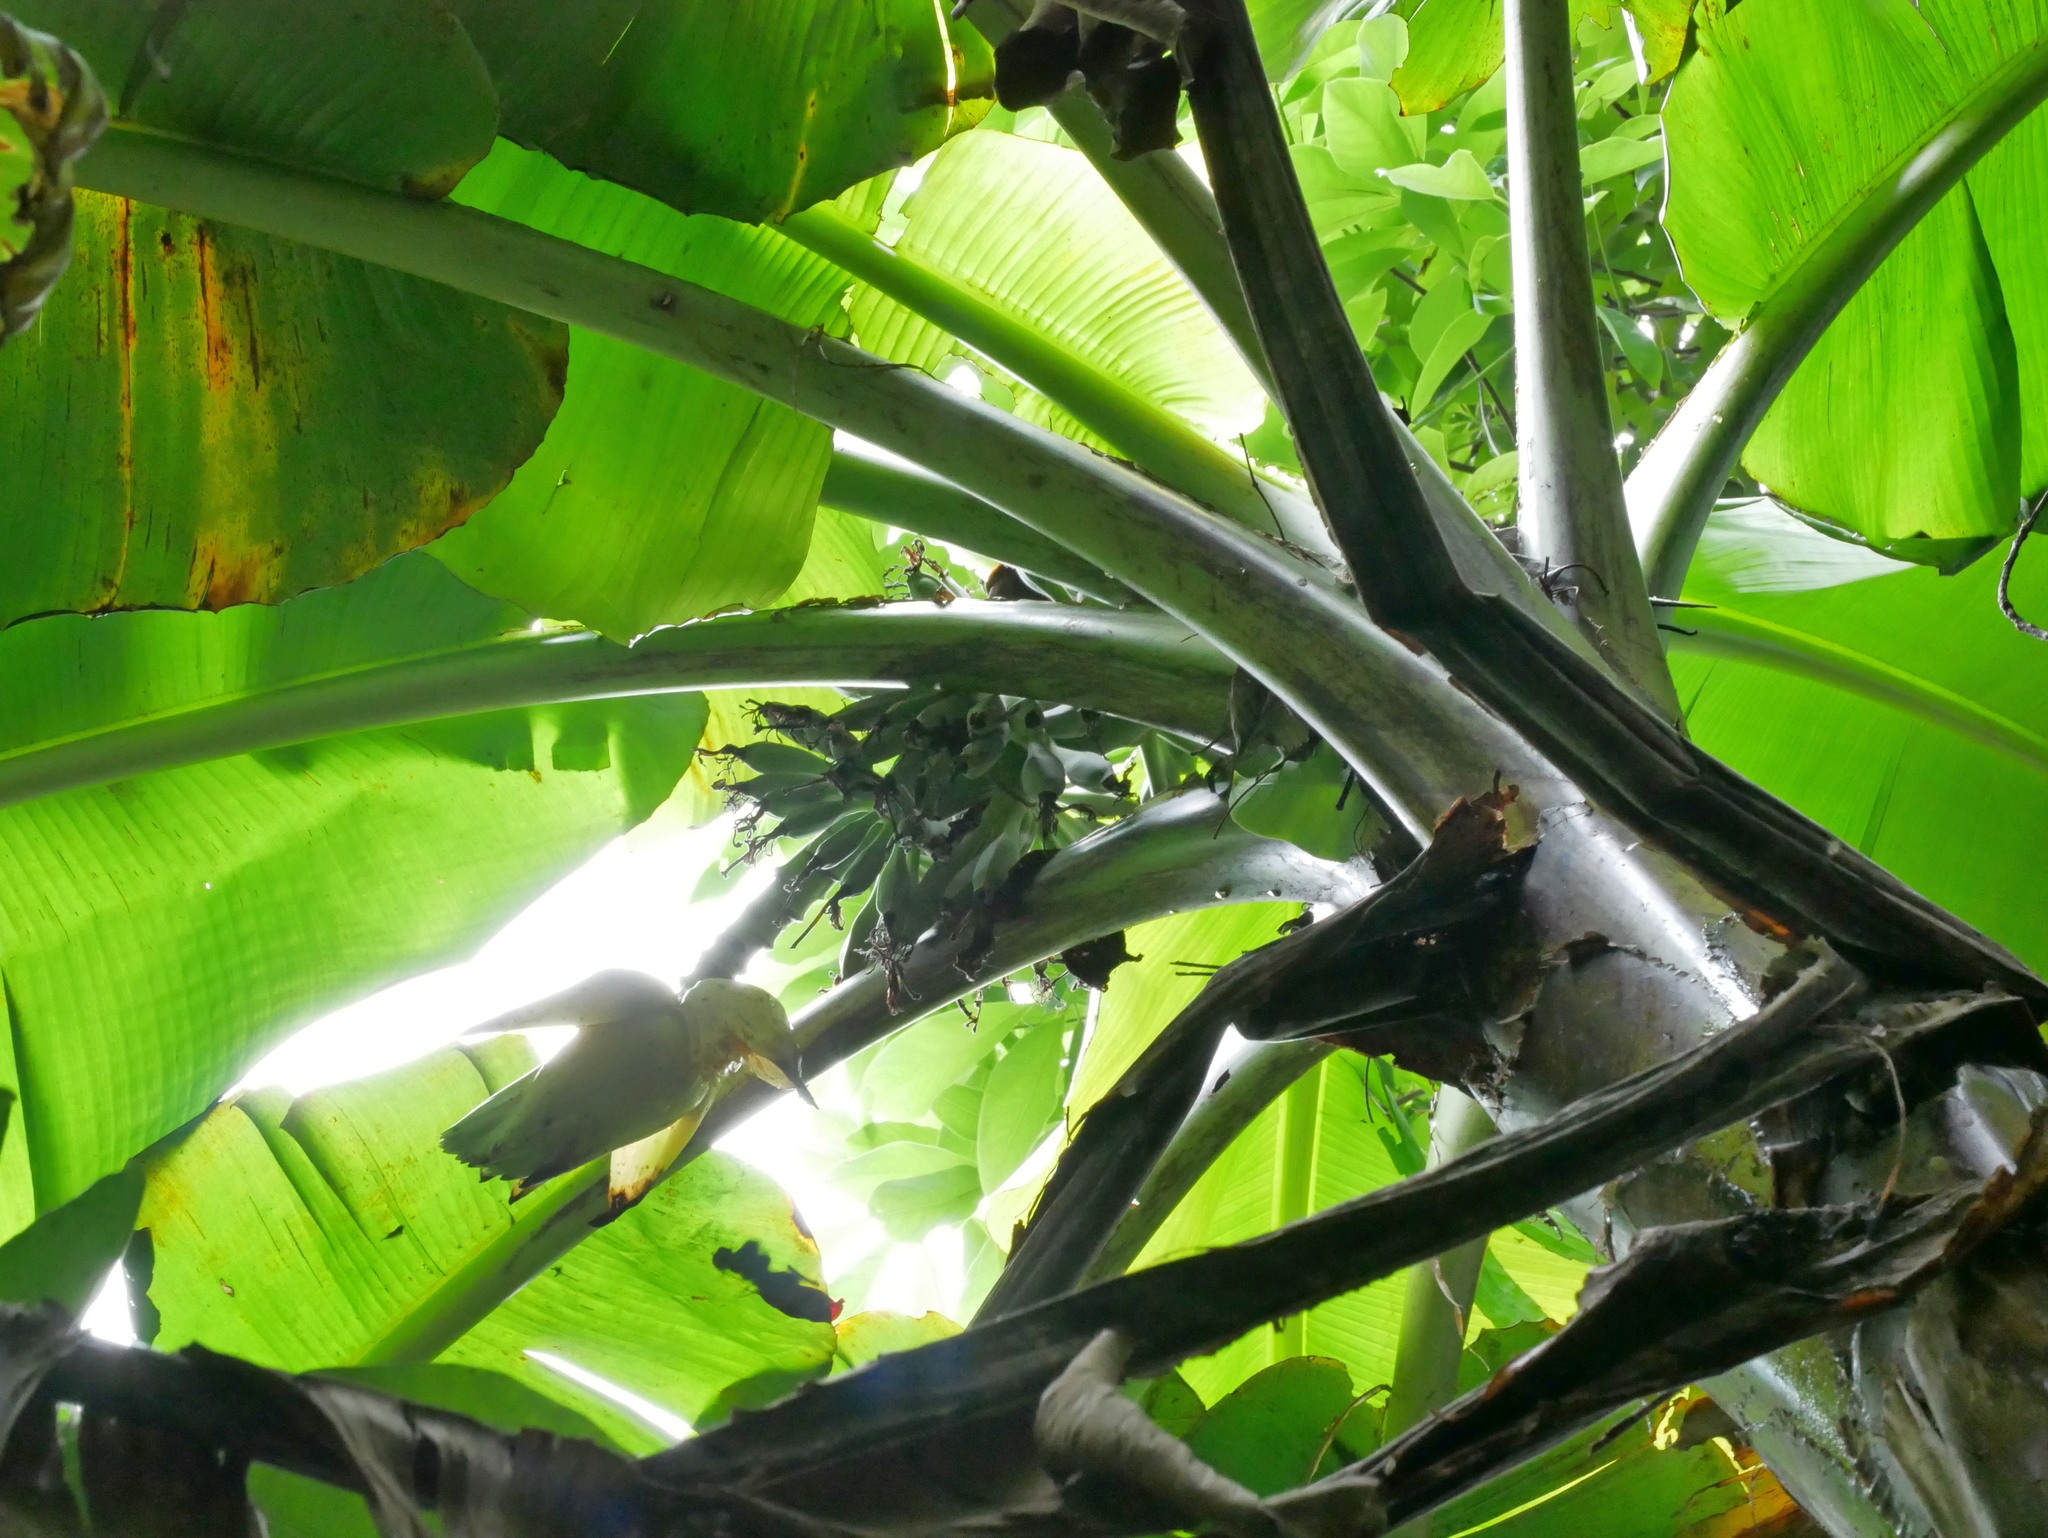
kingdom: Plantae
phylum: Tracheophyta
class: Liliopsida
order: Zingiberales
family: Musaceae
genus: Musa
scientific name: Musa itinerans
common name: Yunnan banana
